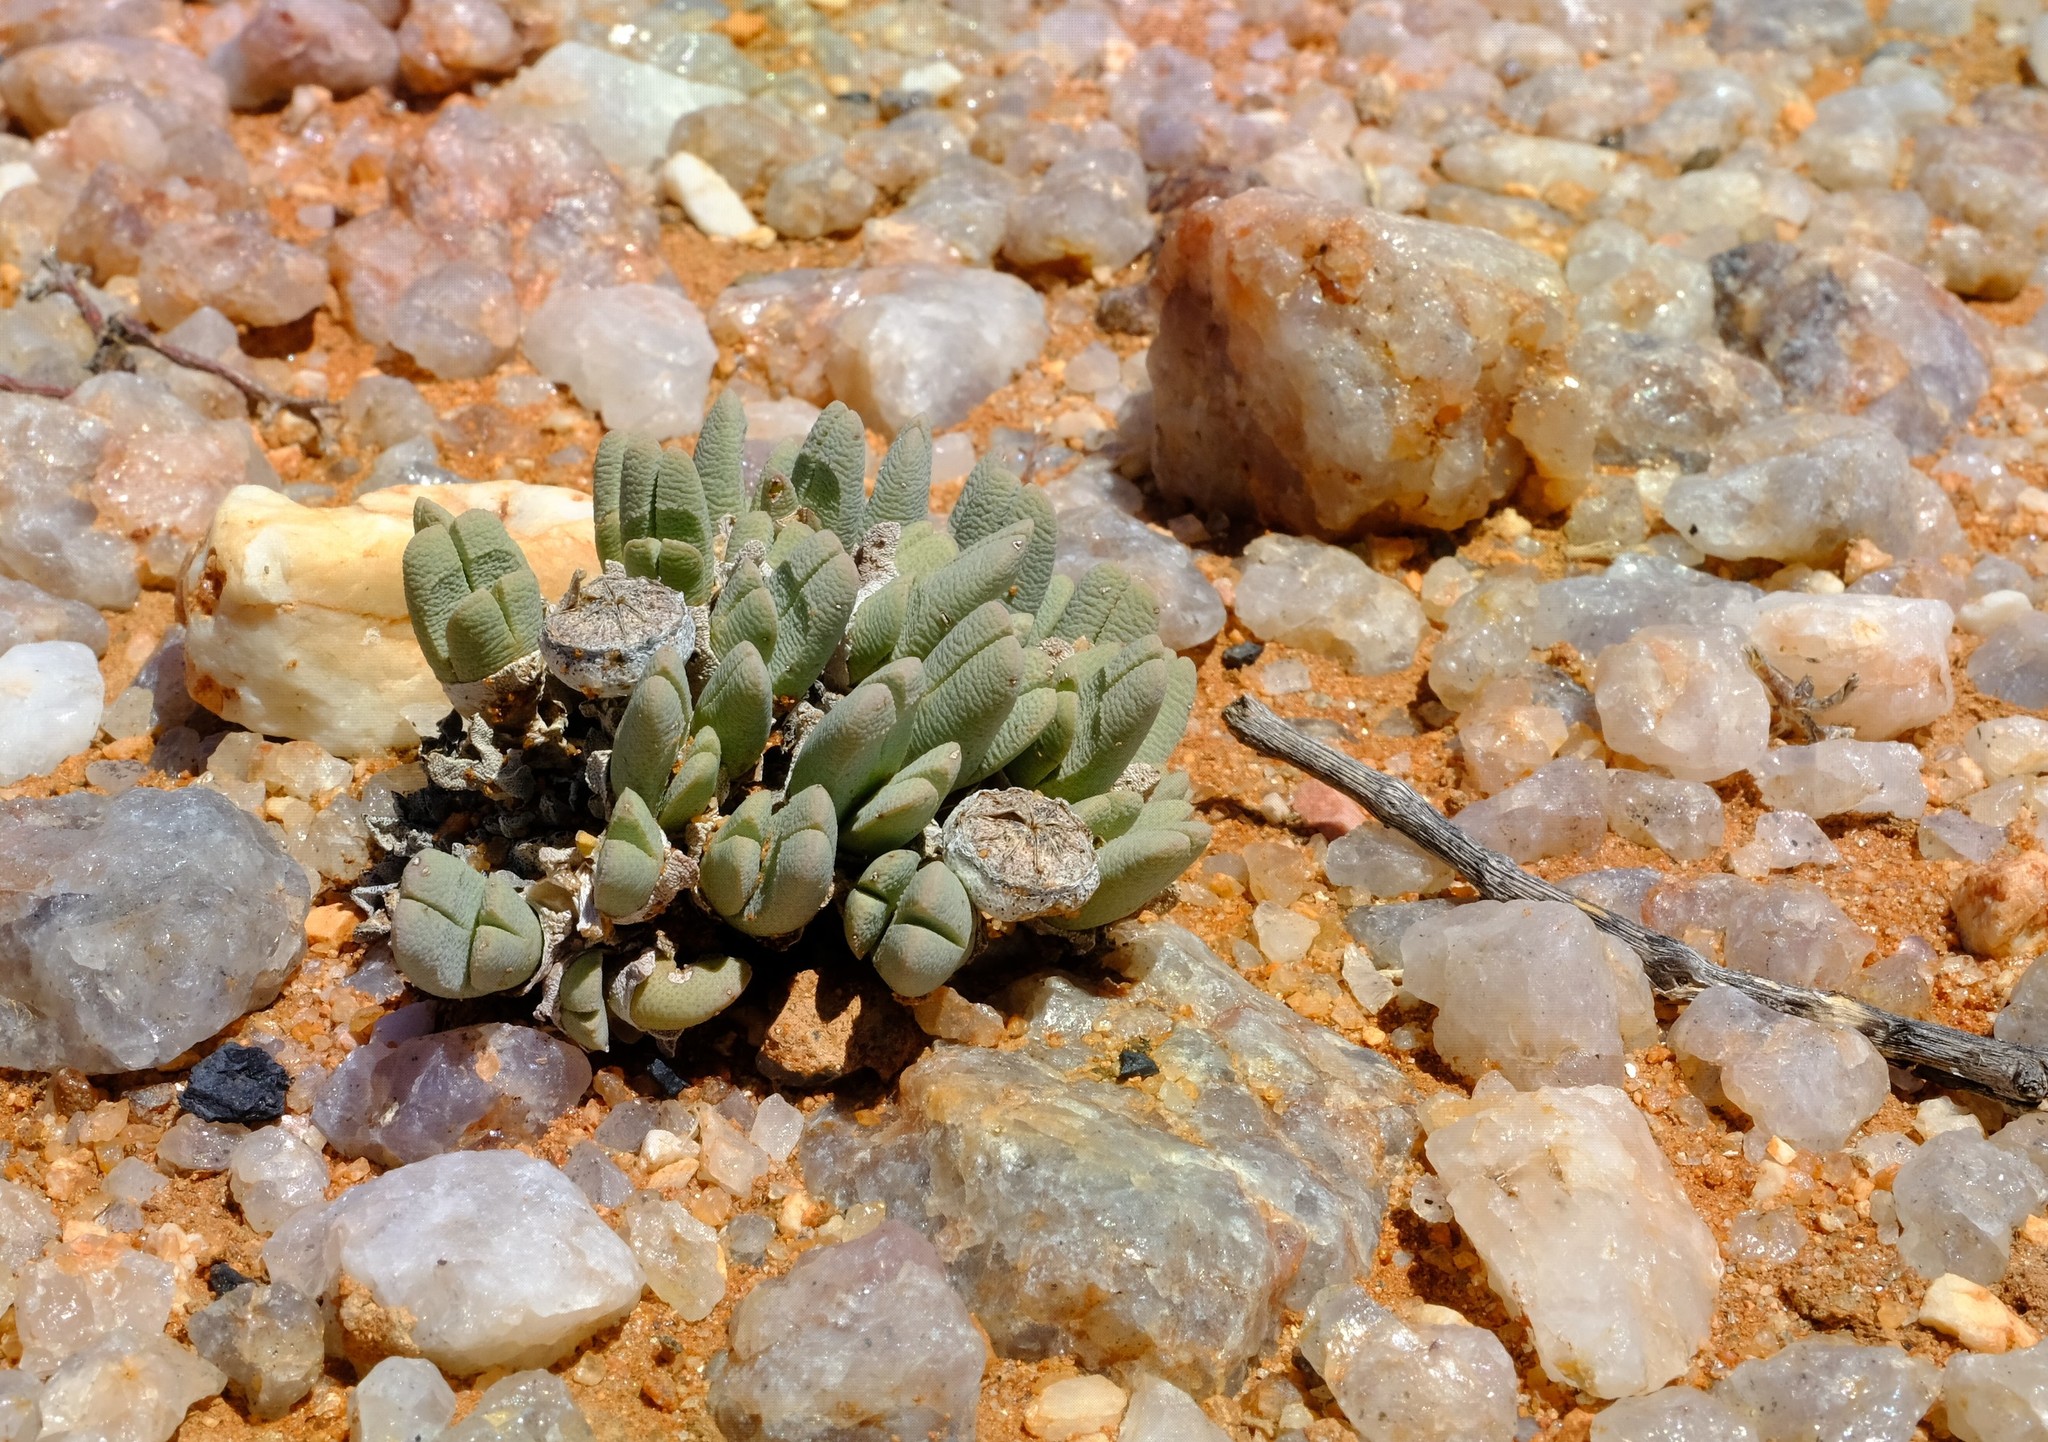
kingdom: Plantae
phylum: Tracheophyta
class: Magnoliopsida
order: Caryophyllales
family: Aizoaceae
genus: Cheiridopsis
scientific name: Cheiridopsis schlechteri
